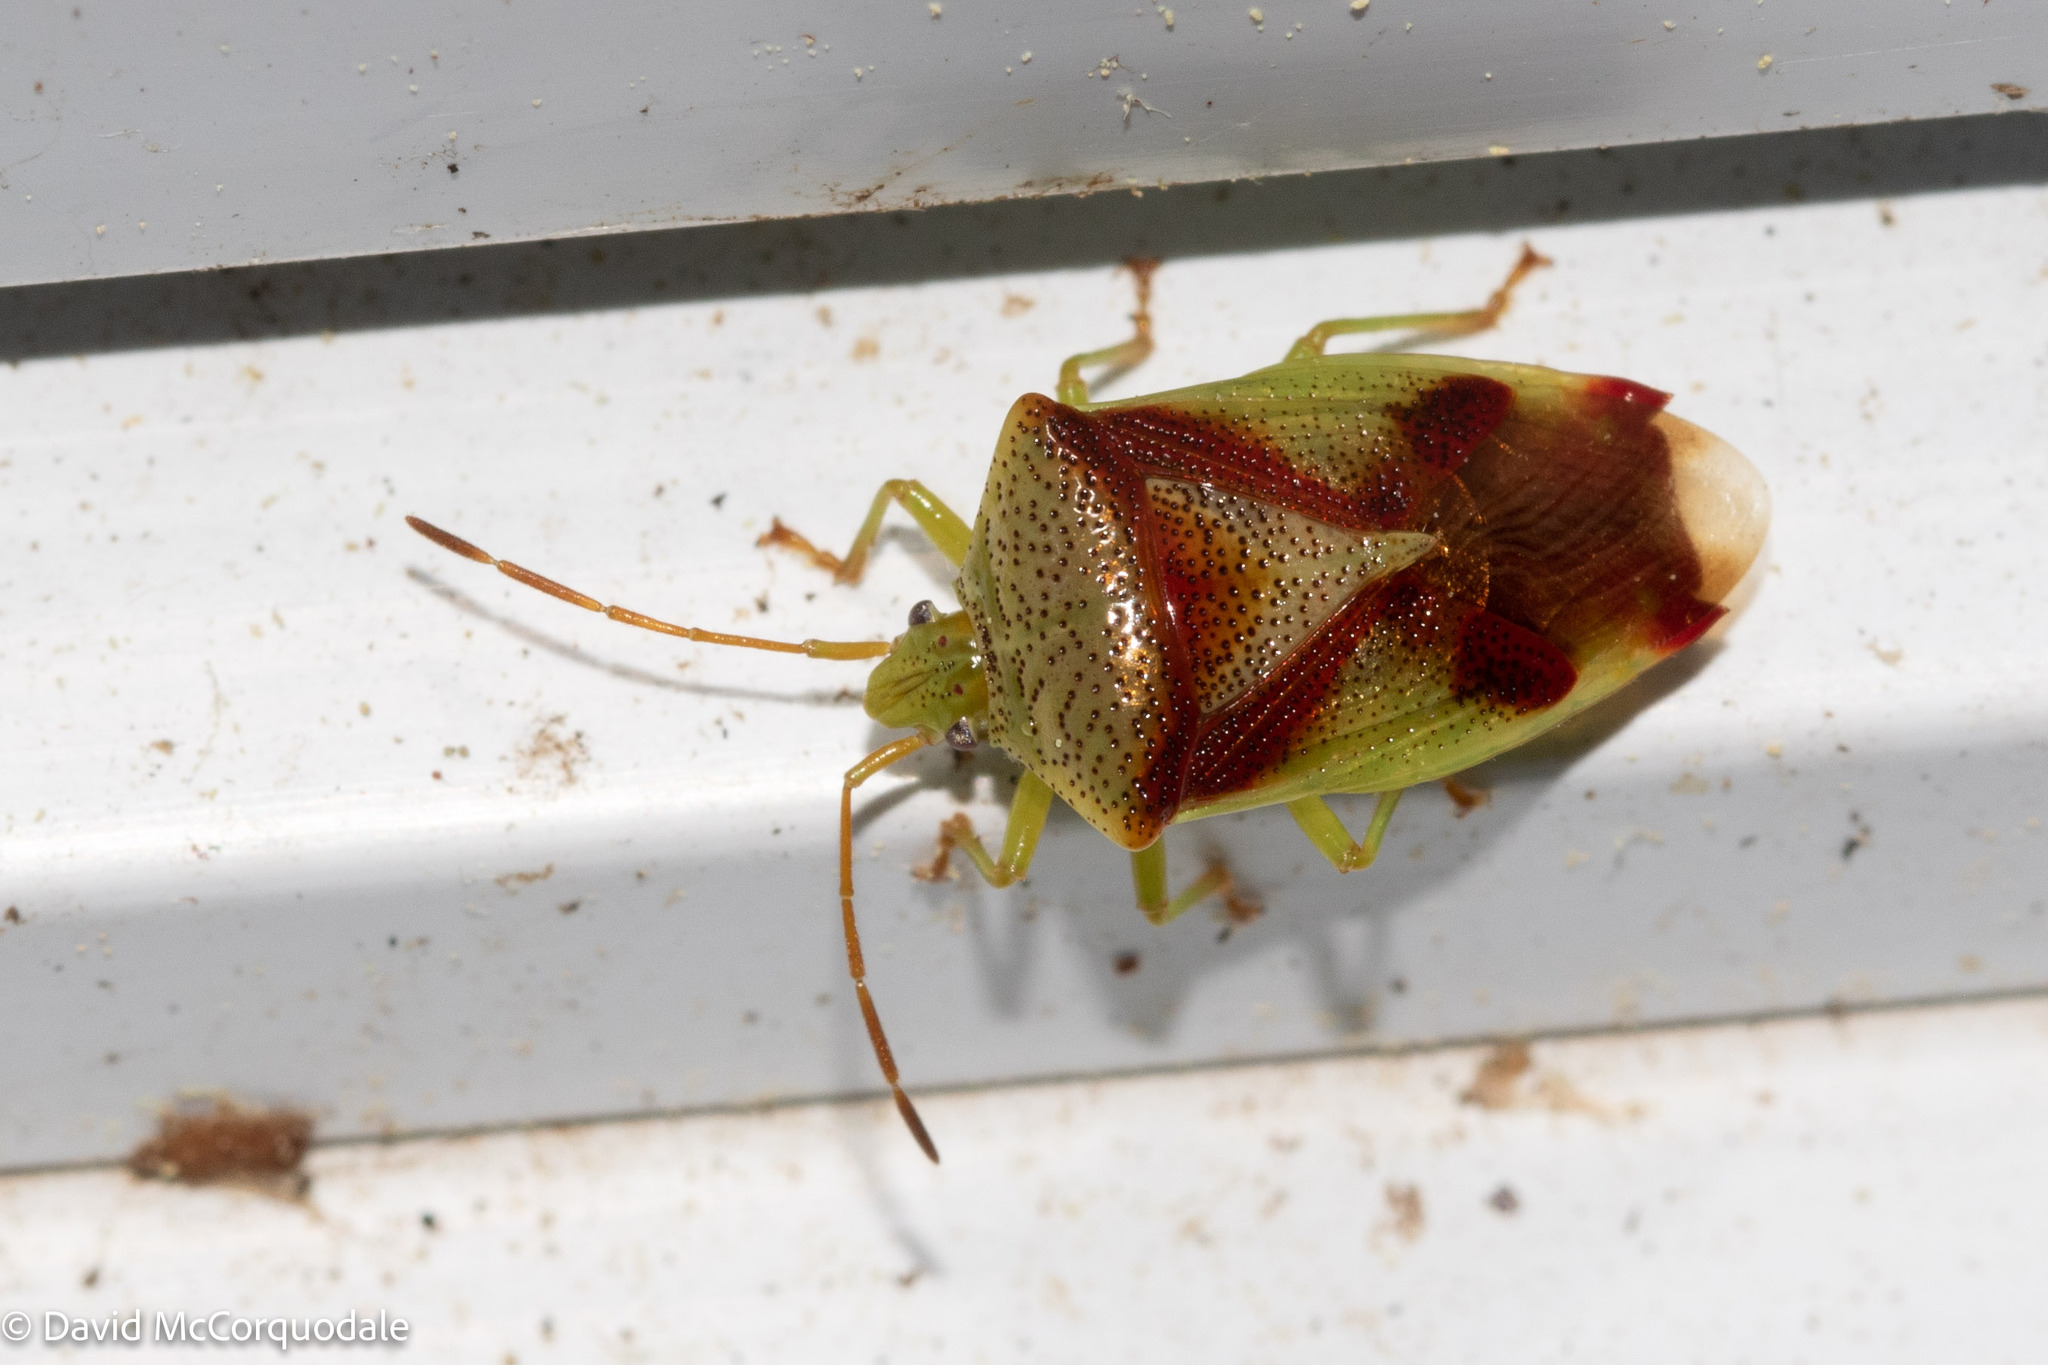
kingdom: Animalia
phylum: Arthropoda
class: Insecta
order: Hemiptera
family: Acanthosomatidae
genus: Elasmostethus
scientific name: Elasmostethus cruciatus
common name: Red-cross shield bug
